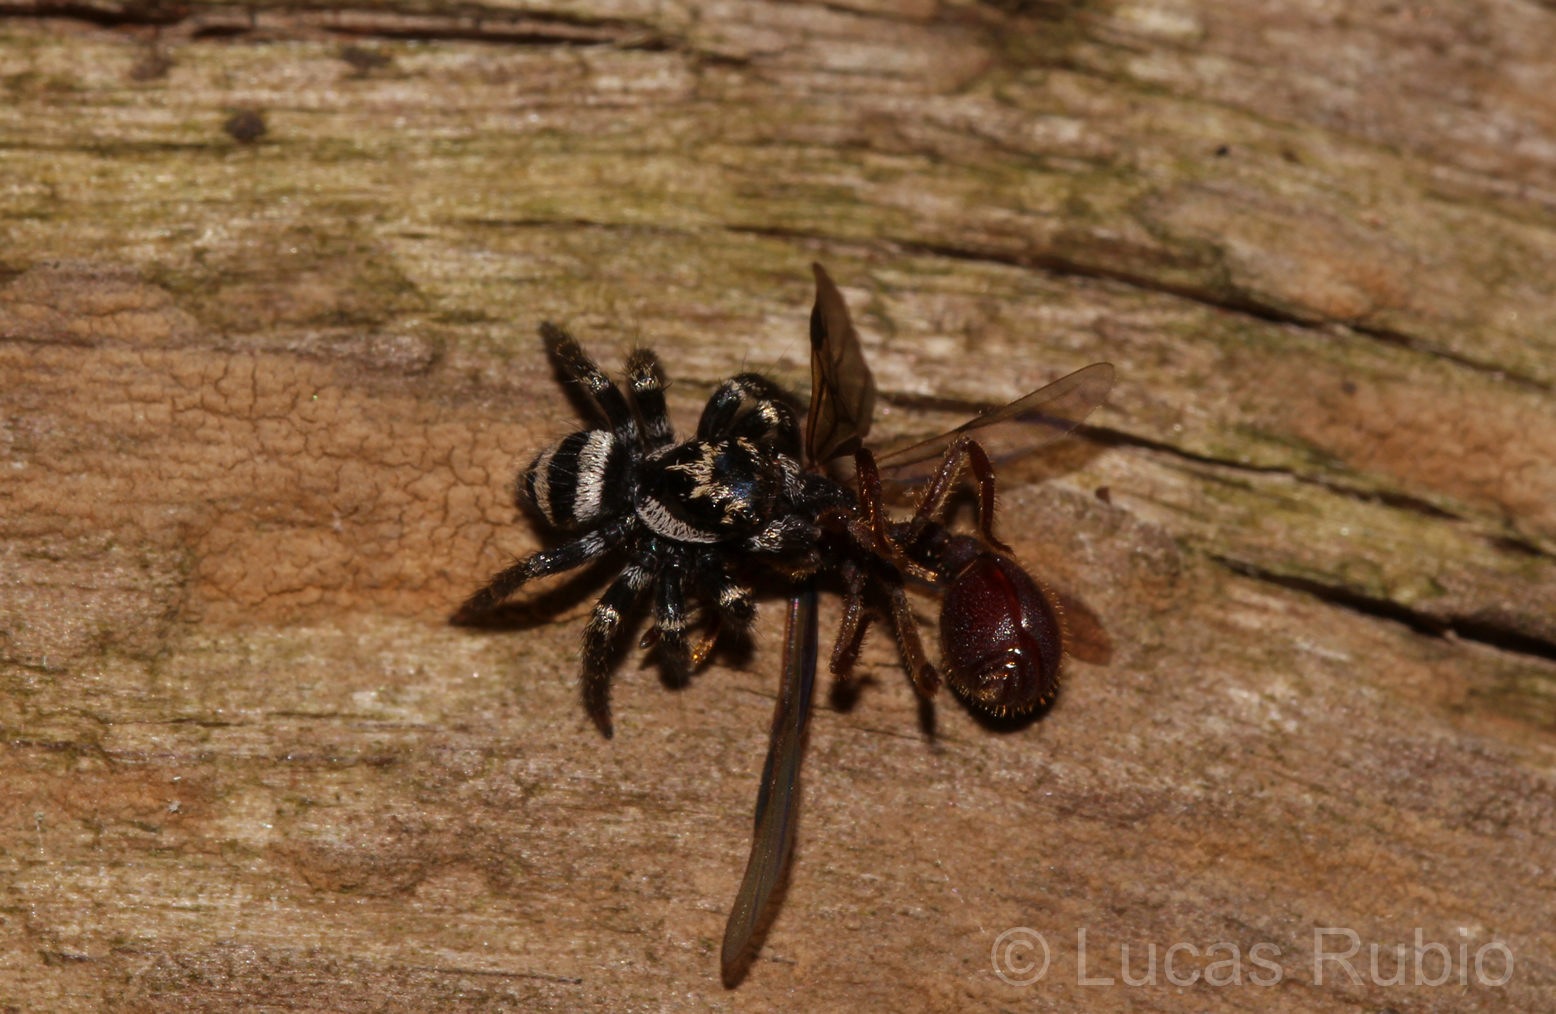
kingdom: Animalia
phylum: Arthropoda
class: Arachnida
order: Araneae
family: Salticidae
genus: Corythalia
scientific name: Corythalia argentinensis
